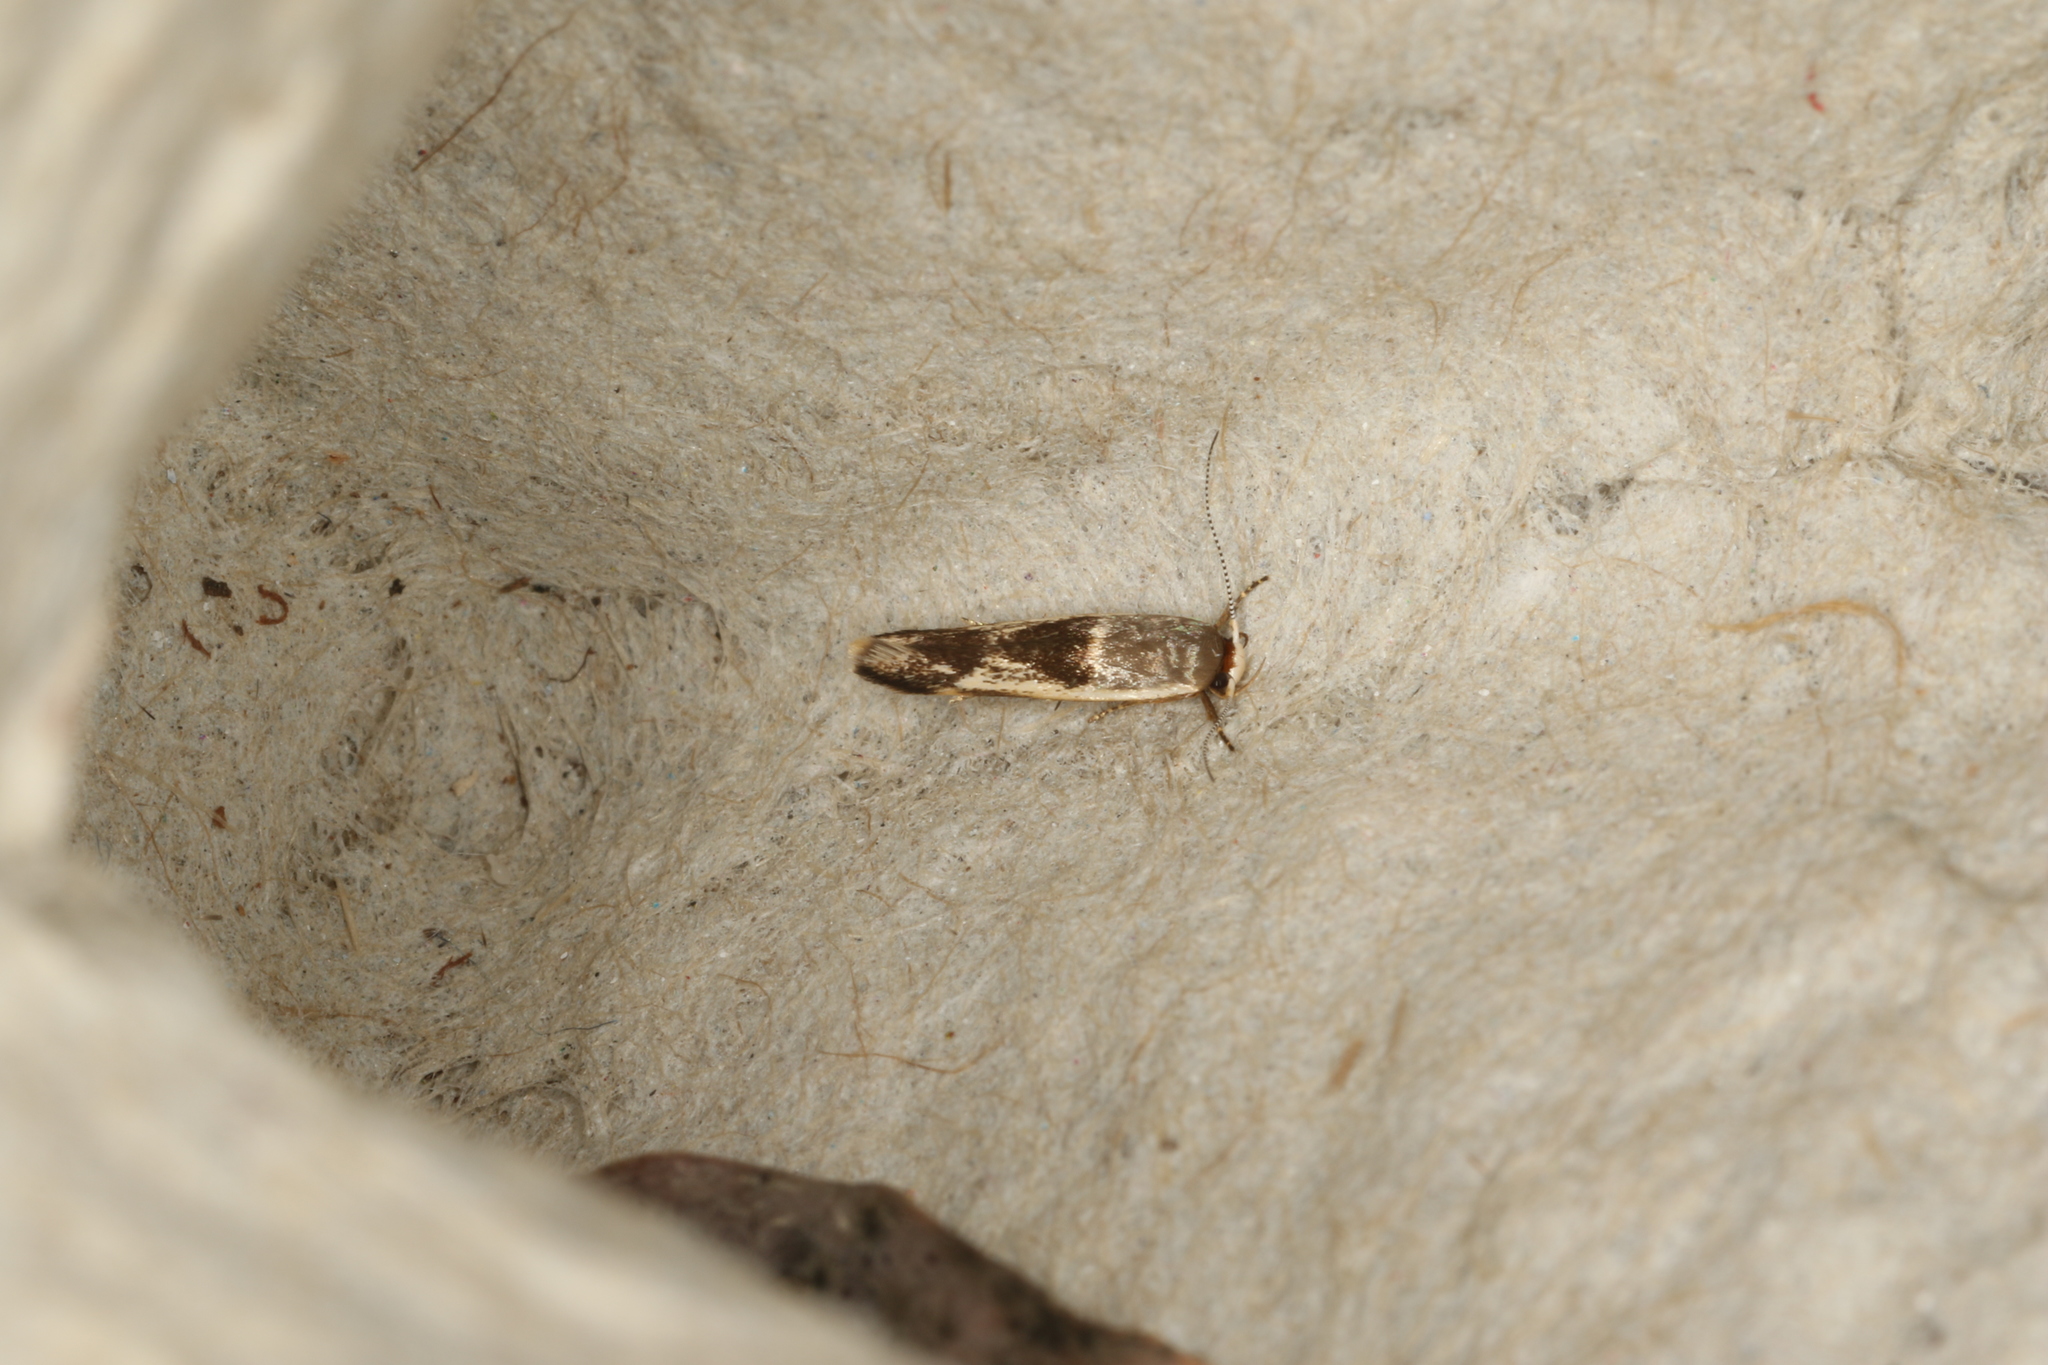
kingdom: Animalia
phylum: Arthropoda
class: Insecta
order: Lepidoptera
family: Stathmopodidae
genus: Stathmopoda
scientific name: Stathmopoda megathyma
